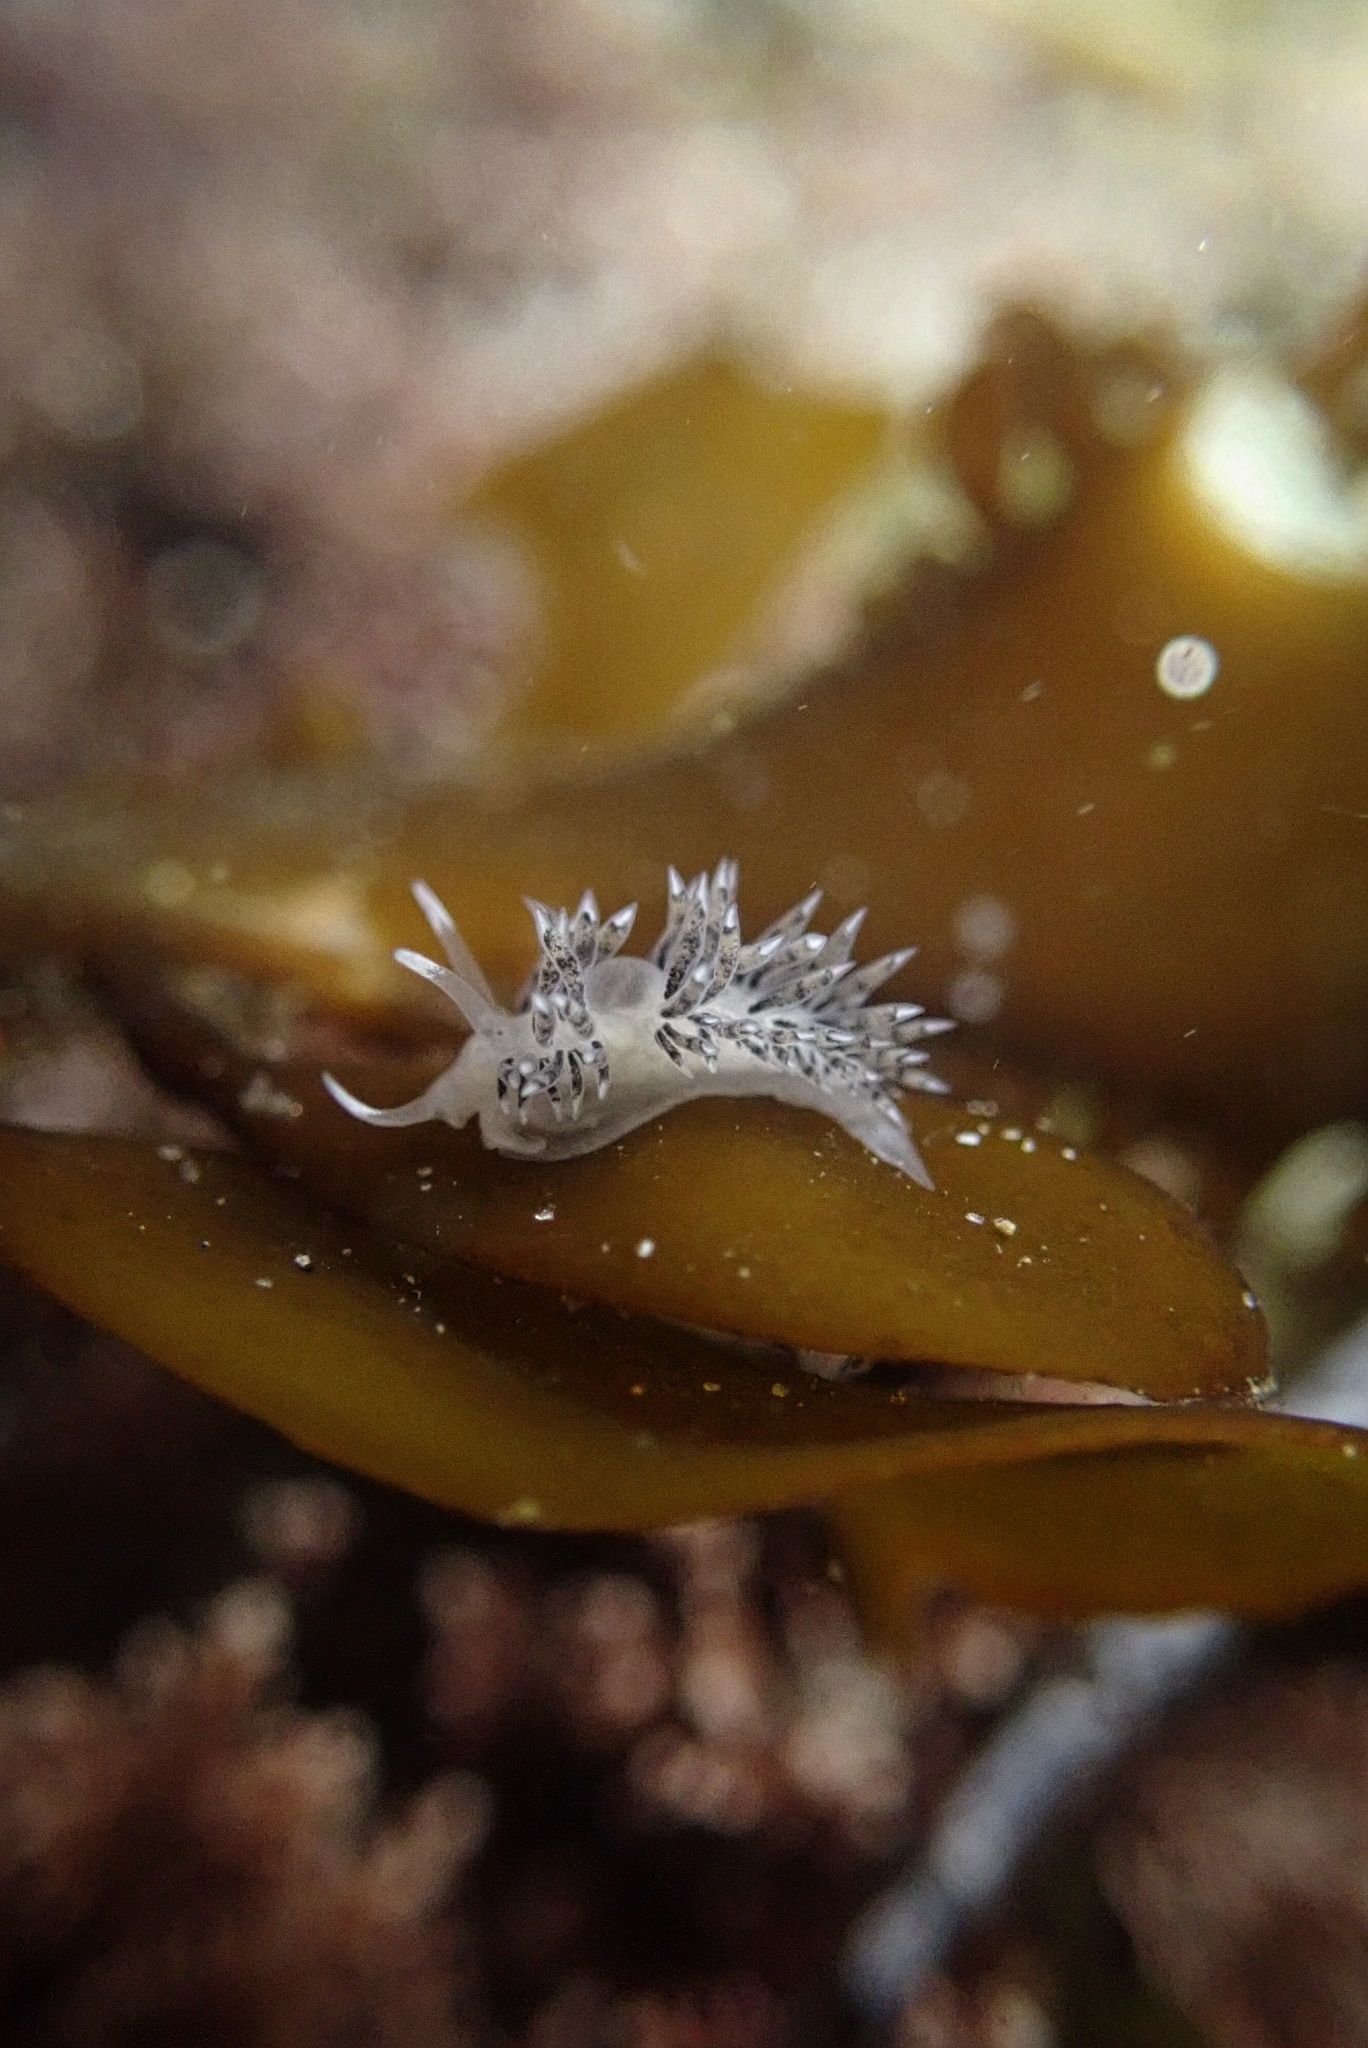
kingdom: Animalia
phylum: Mollusca
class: Gastropoda
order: Nudibranchia
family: Facelinidae
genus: Emarcusia
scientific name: Emarcusia morroensis
